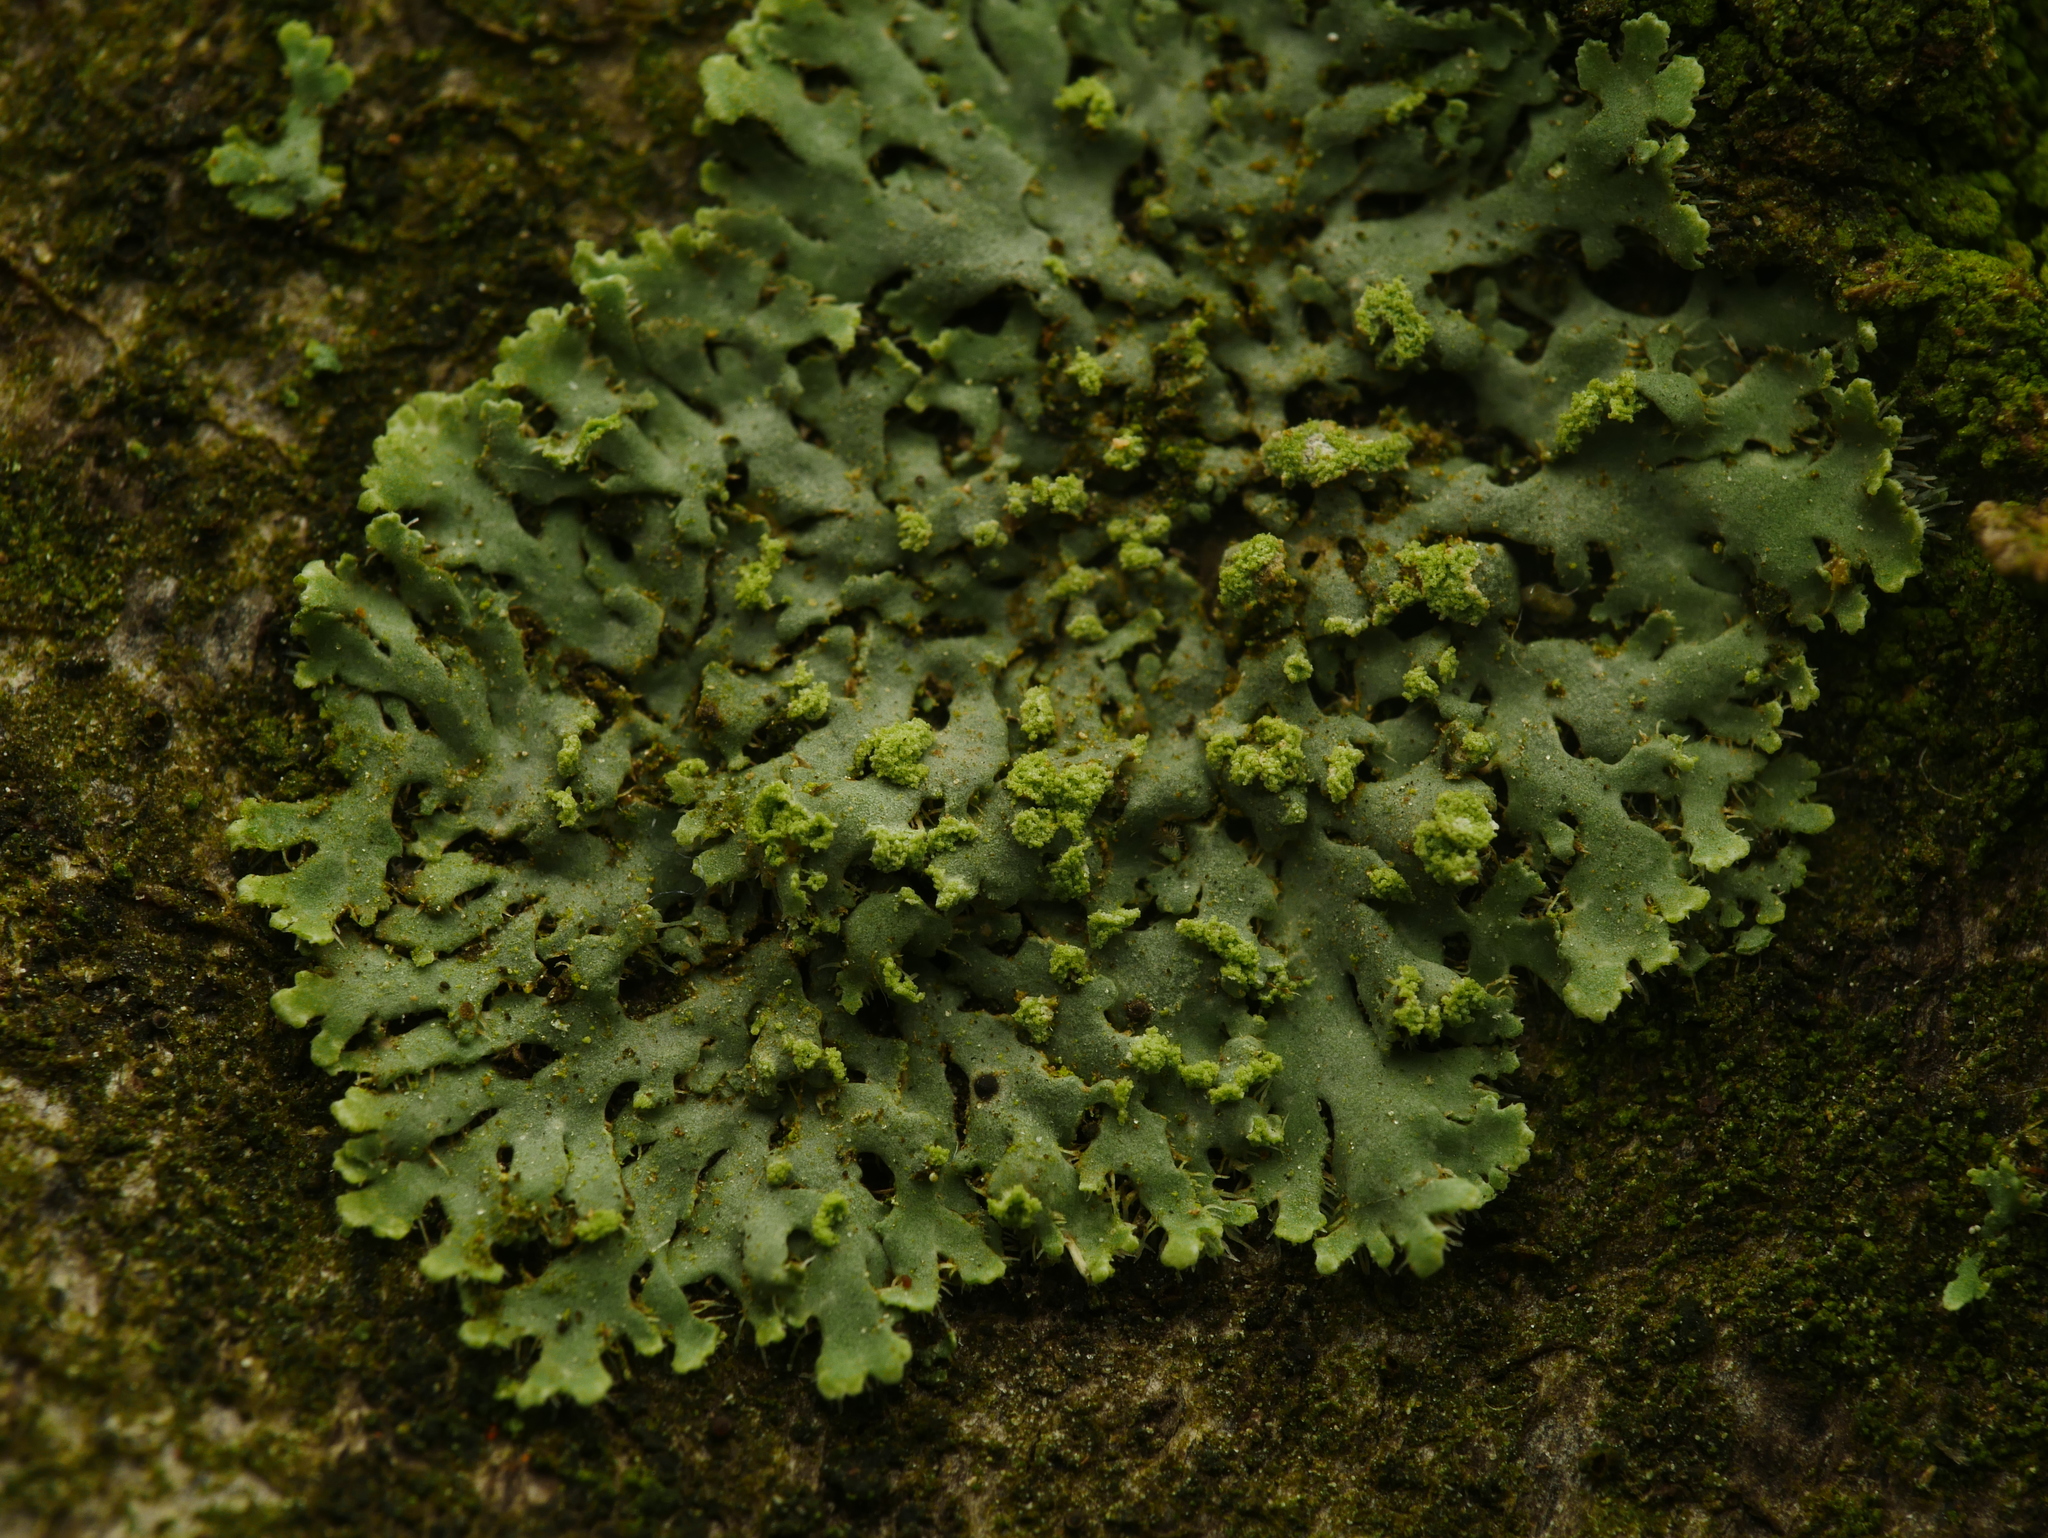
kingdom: Fungi
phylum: Ascomycota
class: Lecanoromycetes
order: Caliciales
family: Physciaceae
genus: Phaeophyscia
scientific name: Phaeophyscia orbicularis
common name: Mealy shadow lichen
